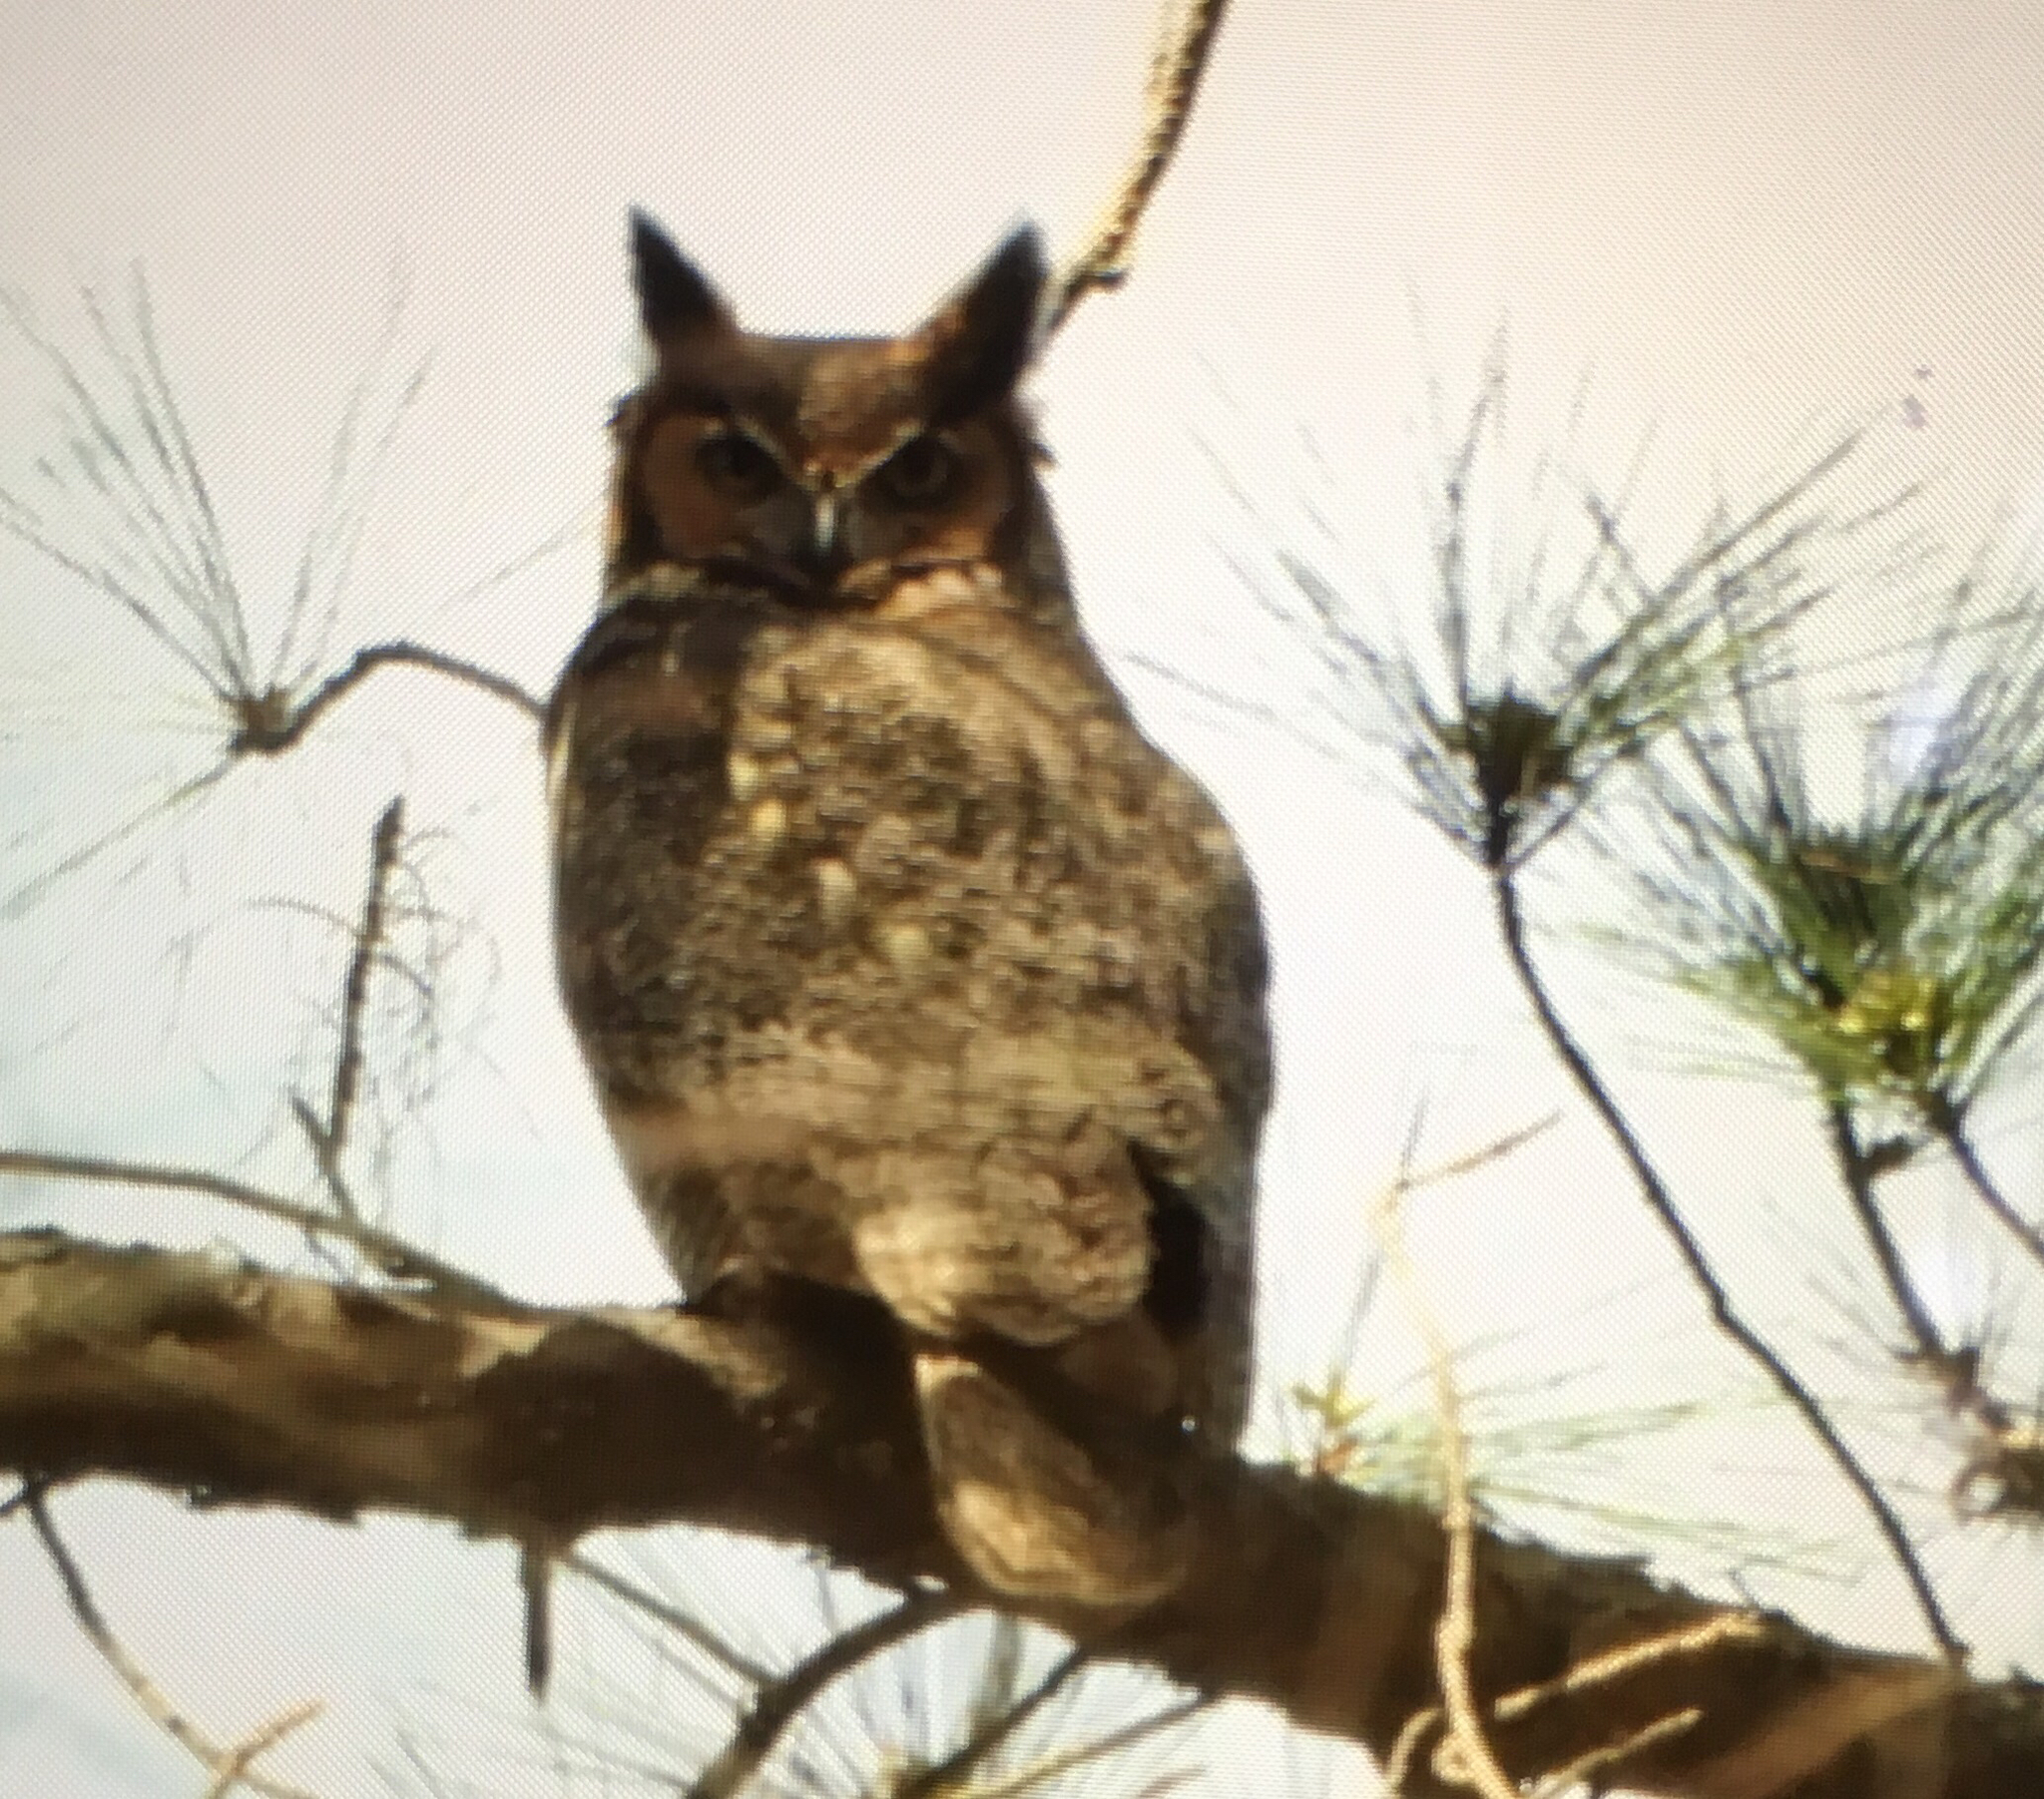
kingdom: Animalia
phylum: Chordata
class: Aves
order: Strigiformes
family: Strigidae
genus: Bubo
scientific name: Bubo virginianus
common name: Great horned owl
